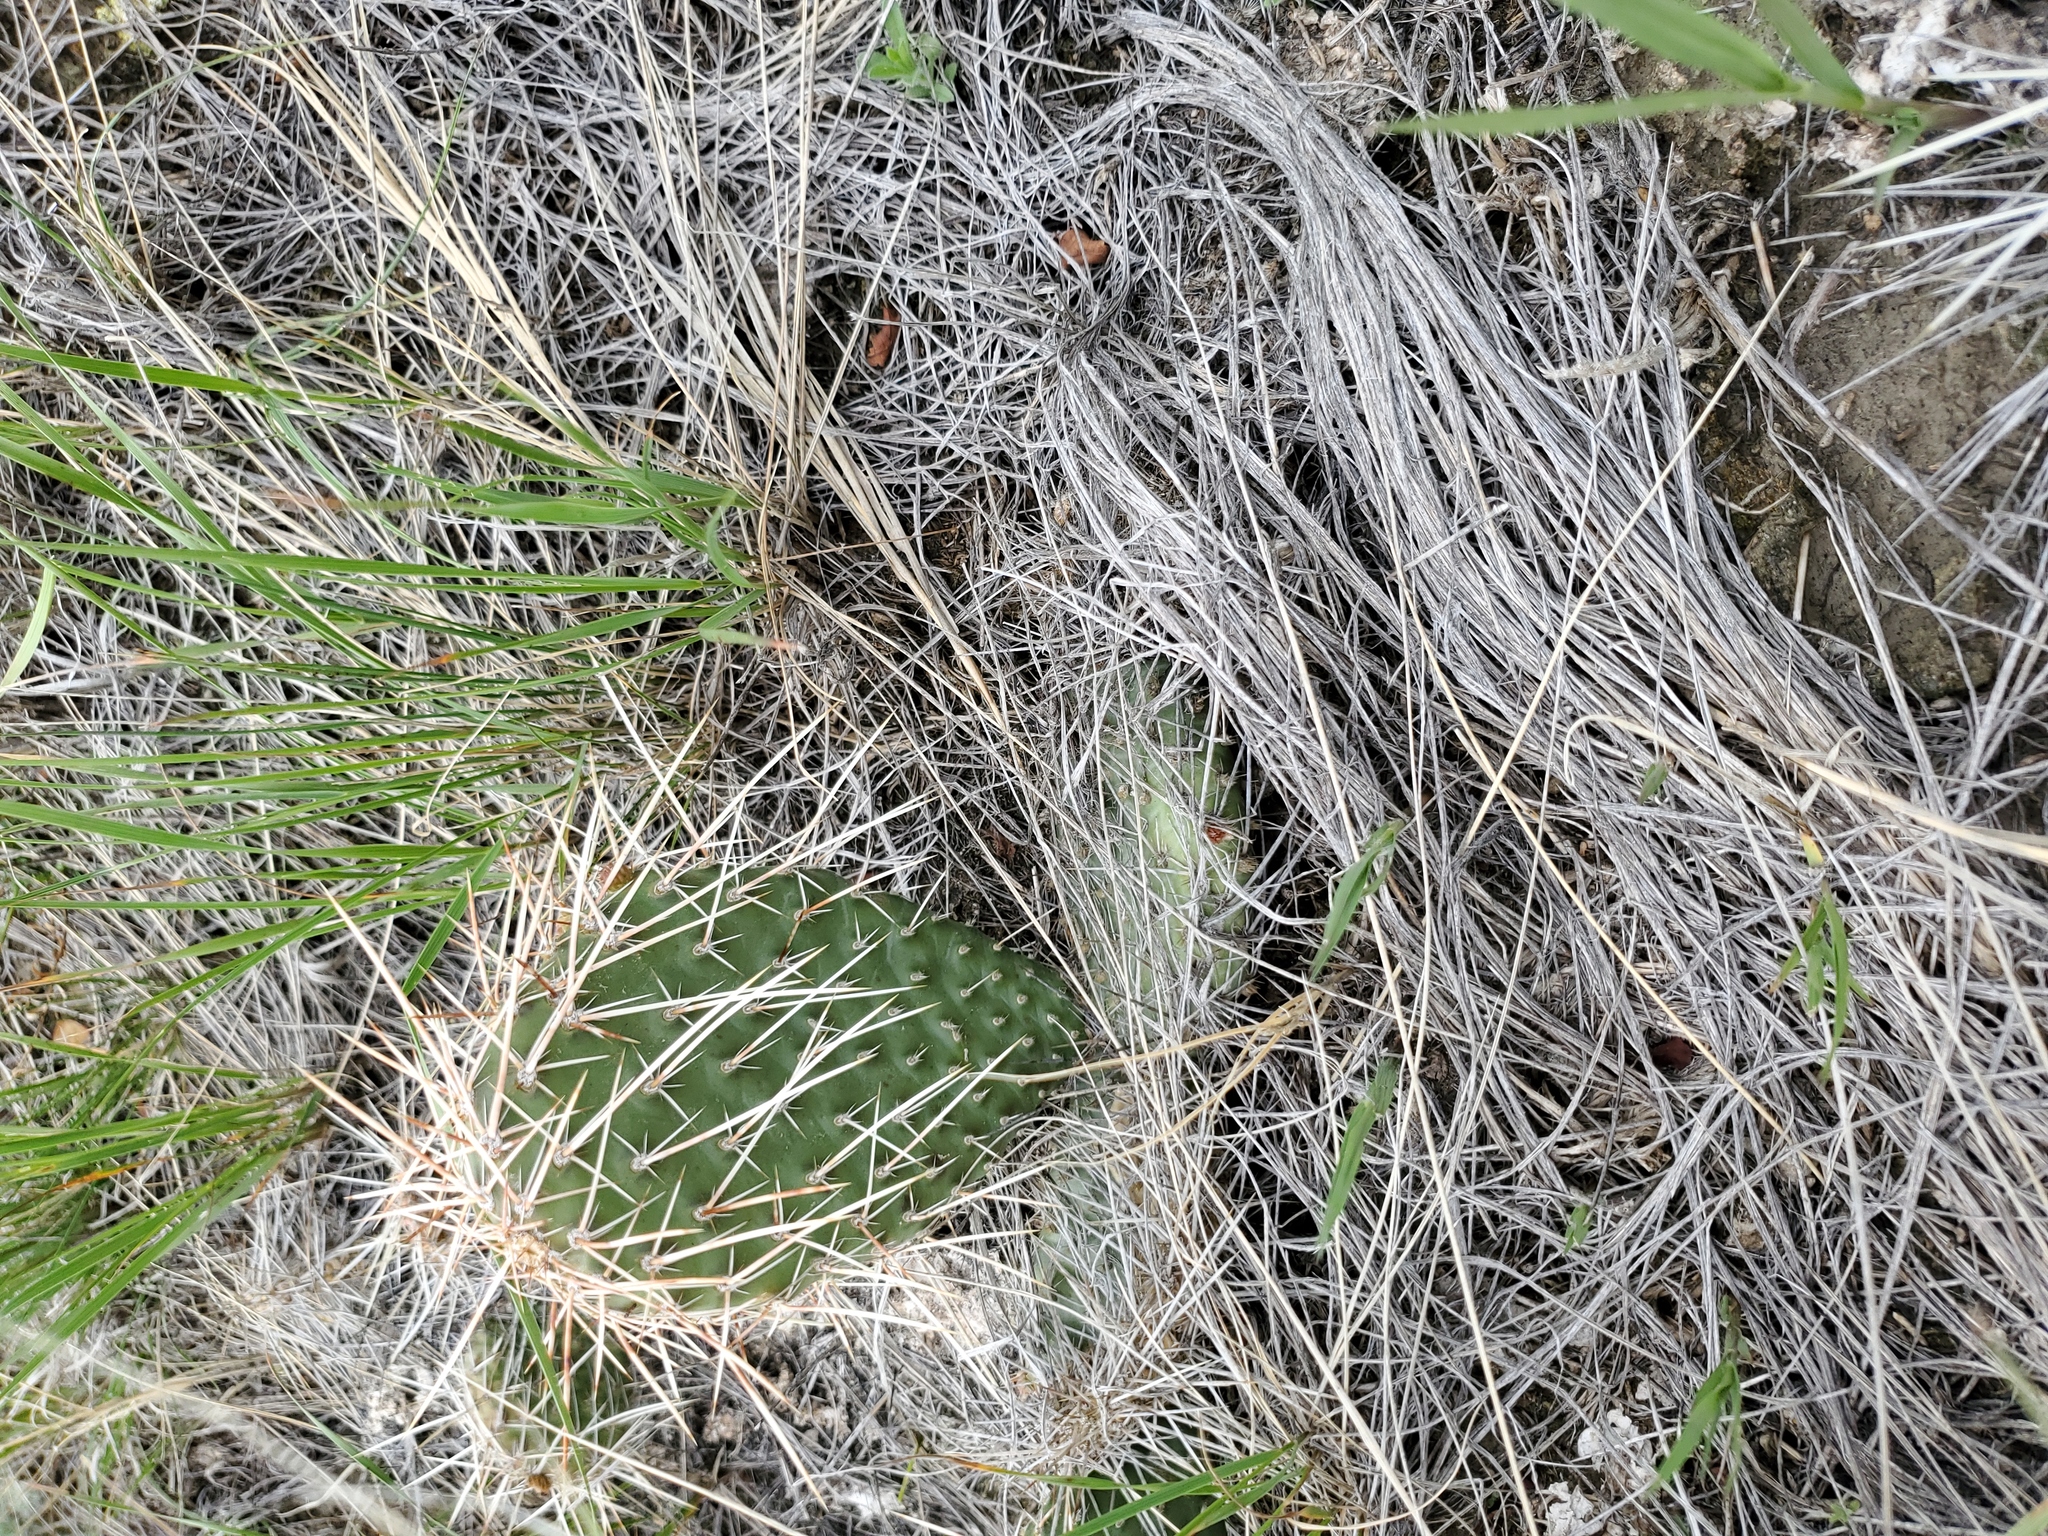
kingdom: Plantae
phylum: Tracheophyta
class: Magnoliopsida
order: Caryophyllales
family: Cactaceae
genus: Opuntia
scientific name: Opuntia polyacantha
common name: Plains prickly-pear
